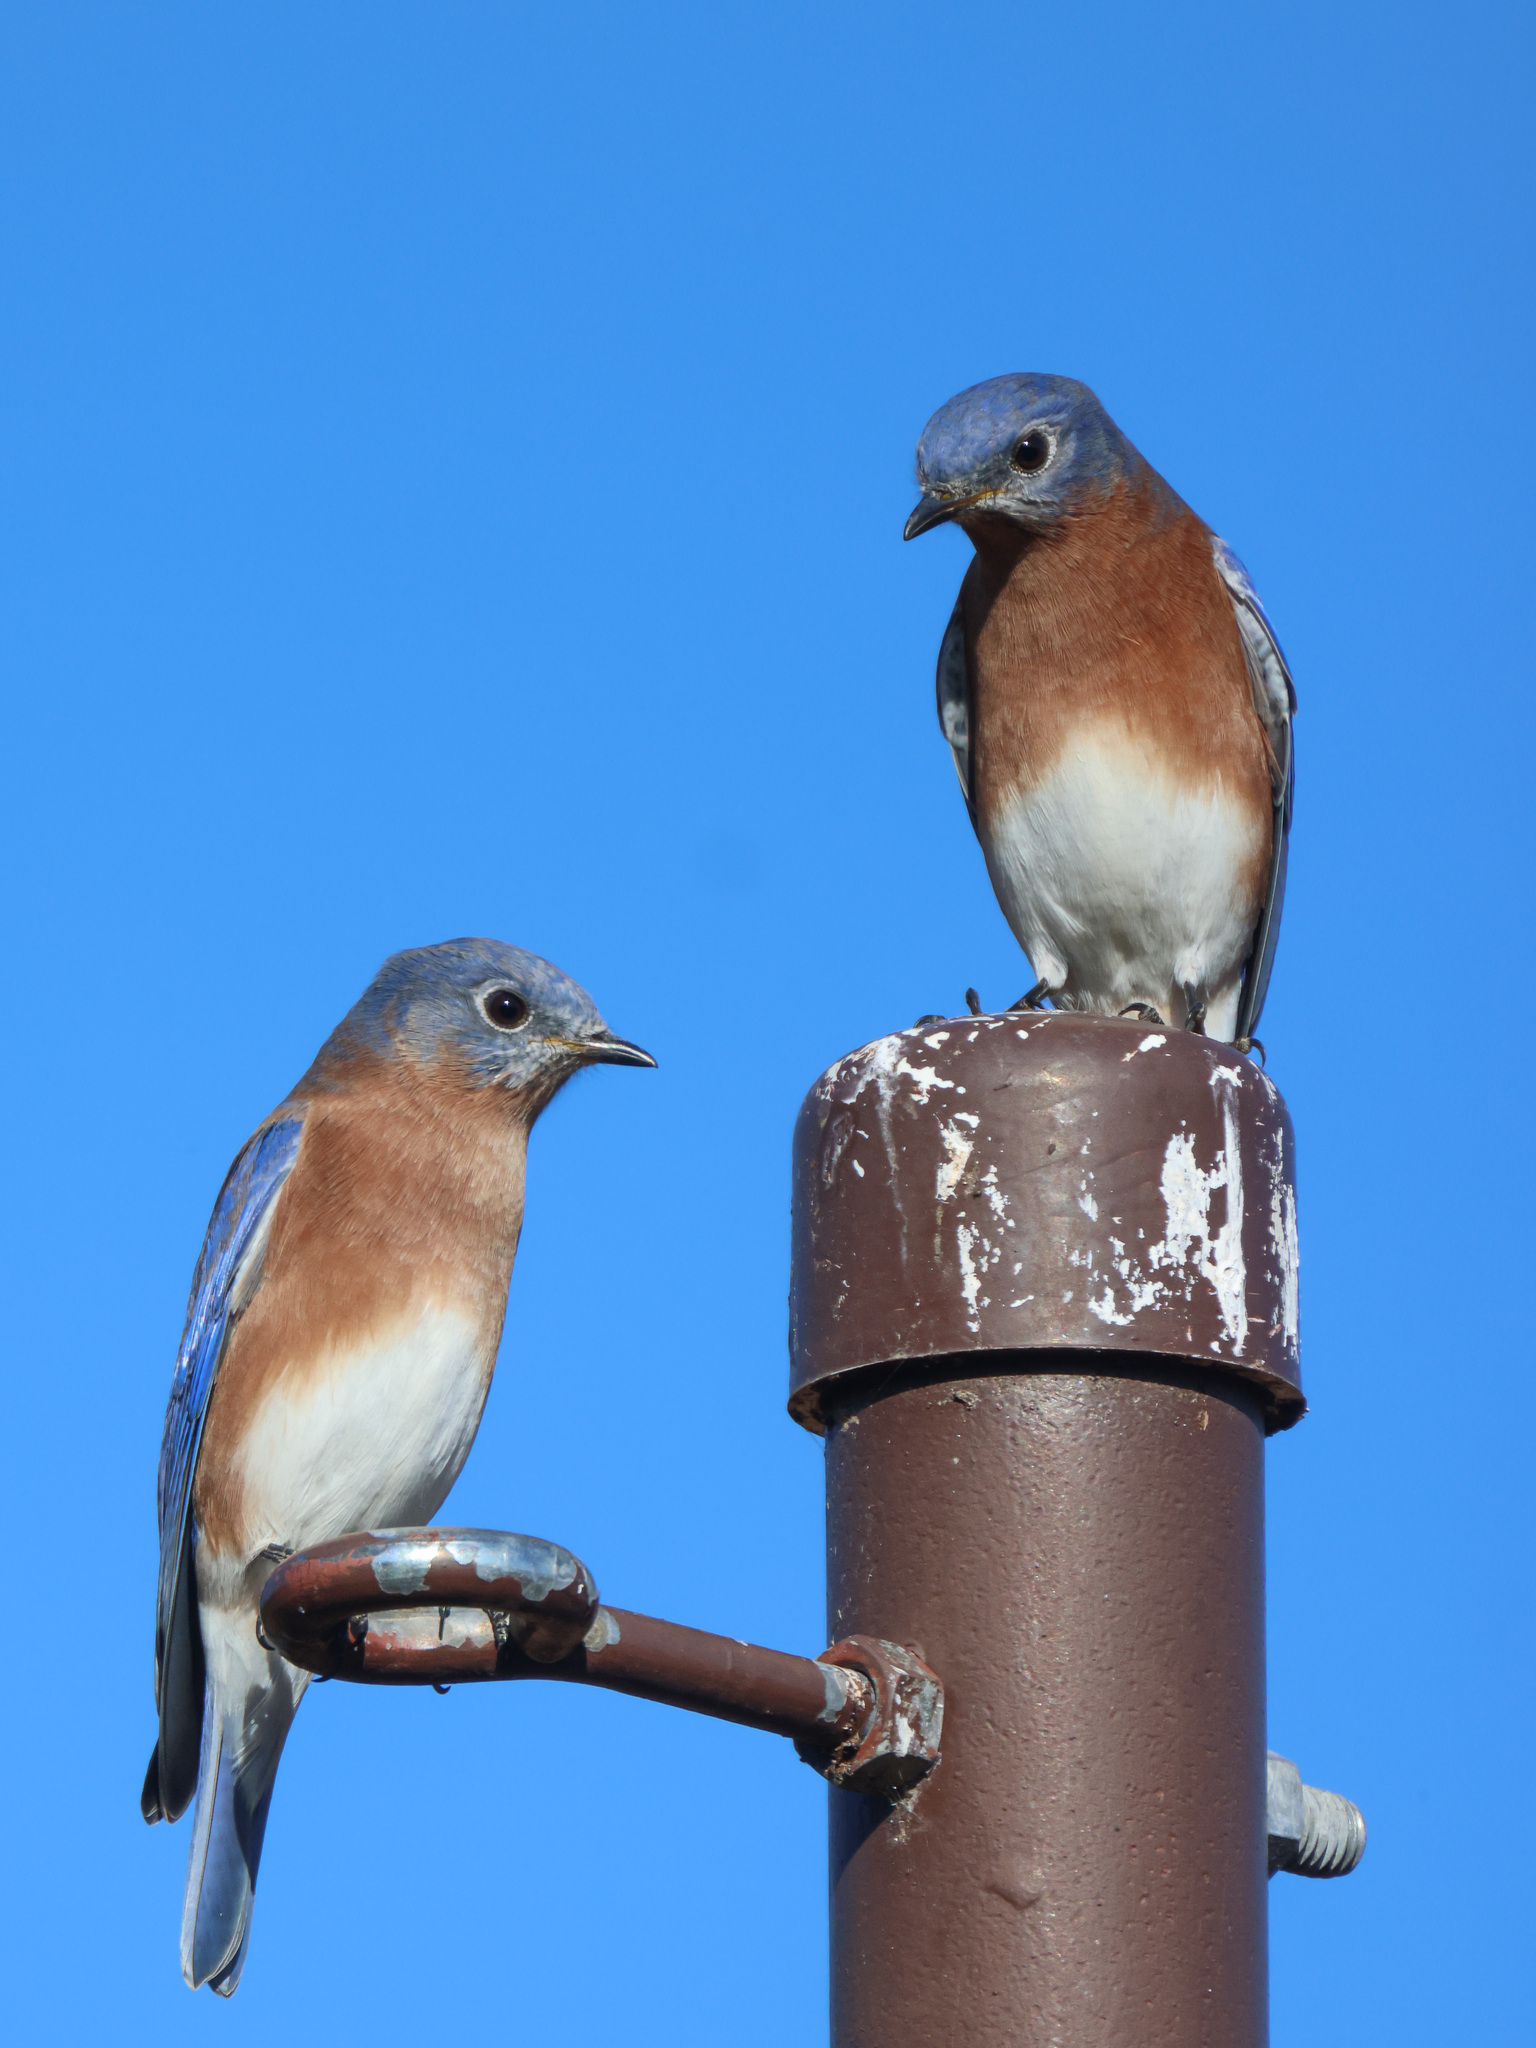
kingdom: Animalia
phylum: Chordata
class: Aves
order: Passeriformes
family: Turdidae
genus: Sialia
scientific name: Sialia sialis
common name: Eastern bluebird
